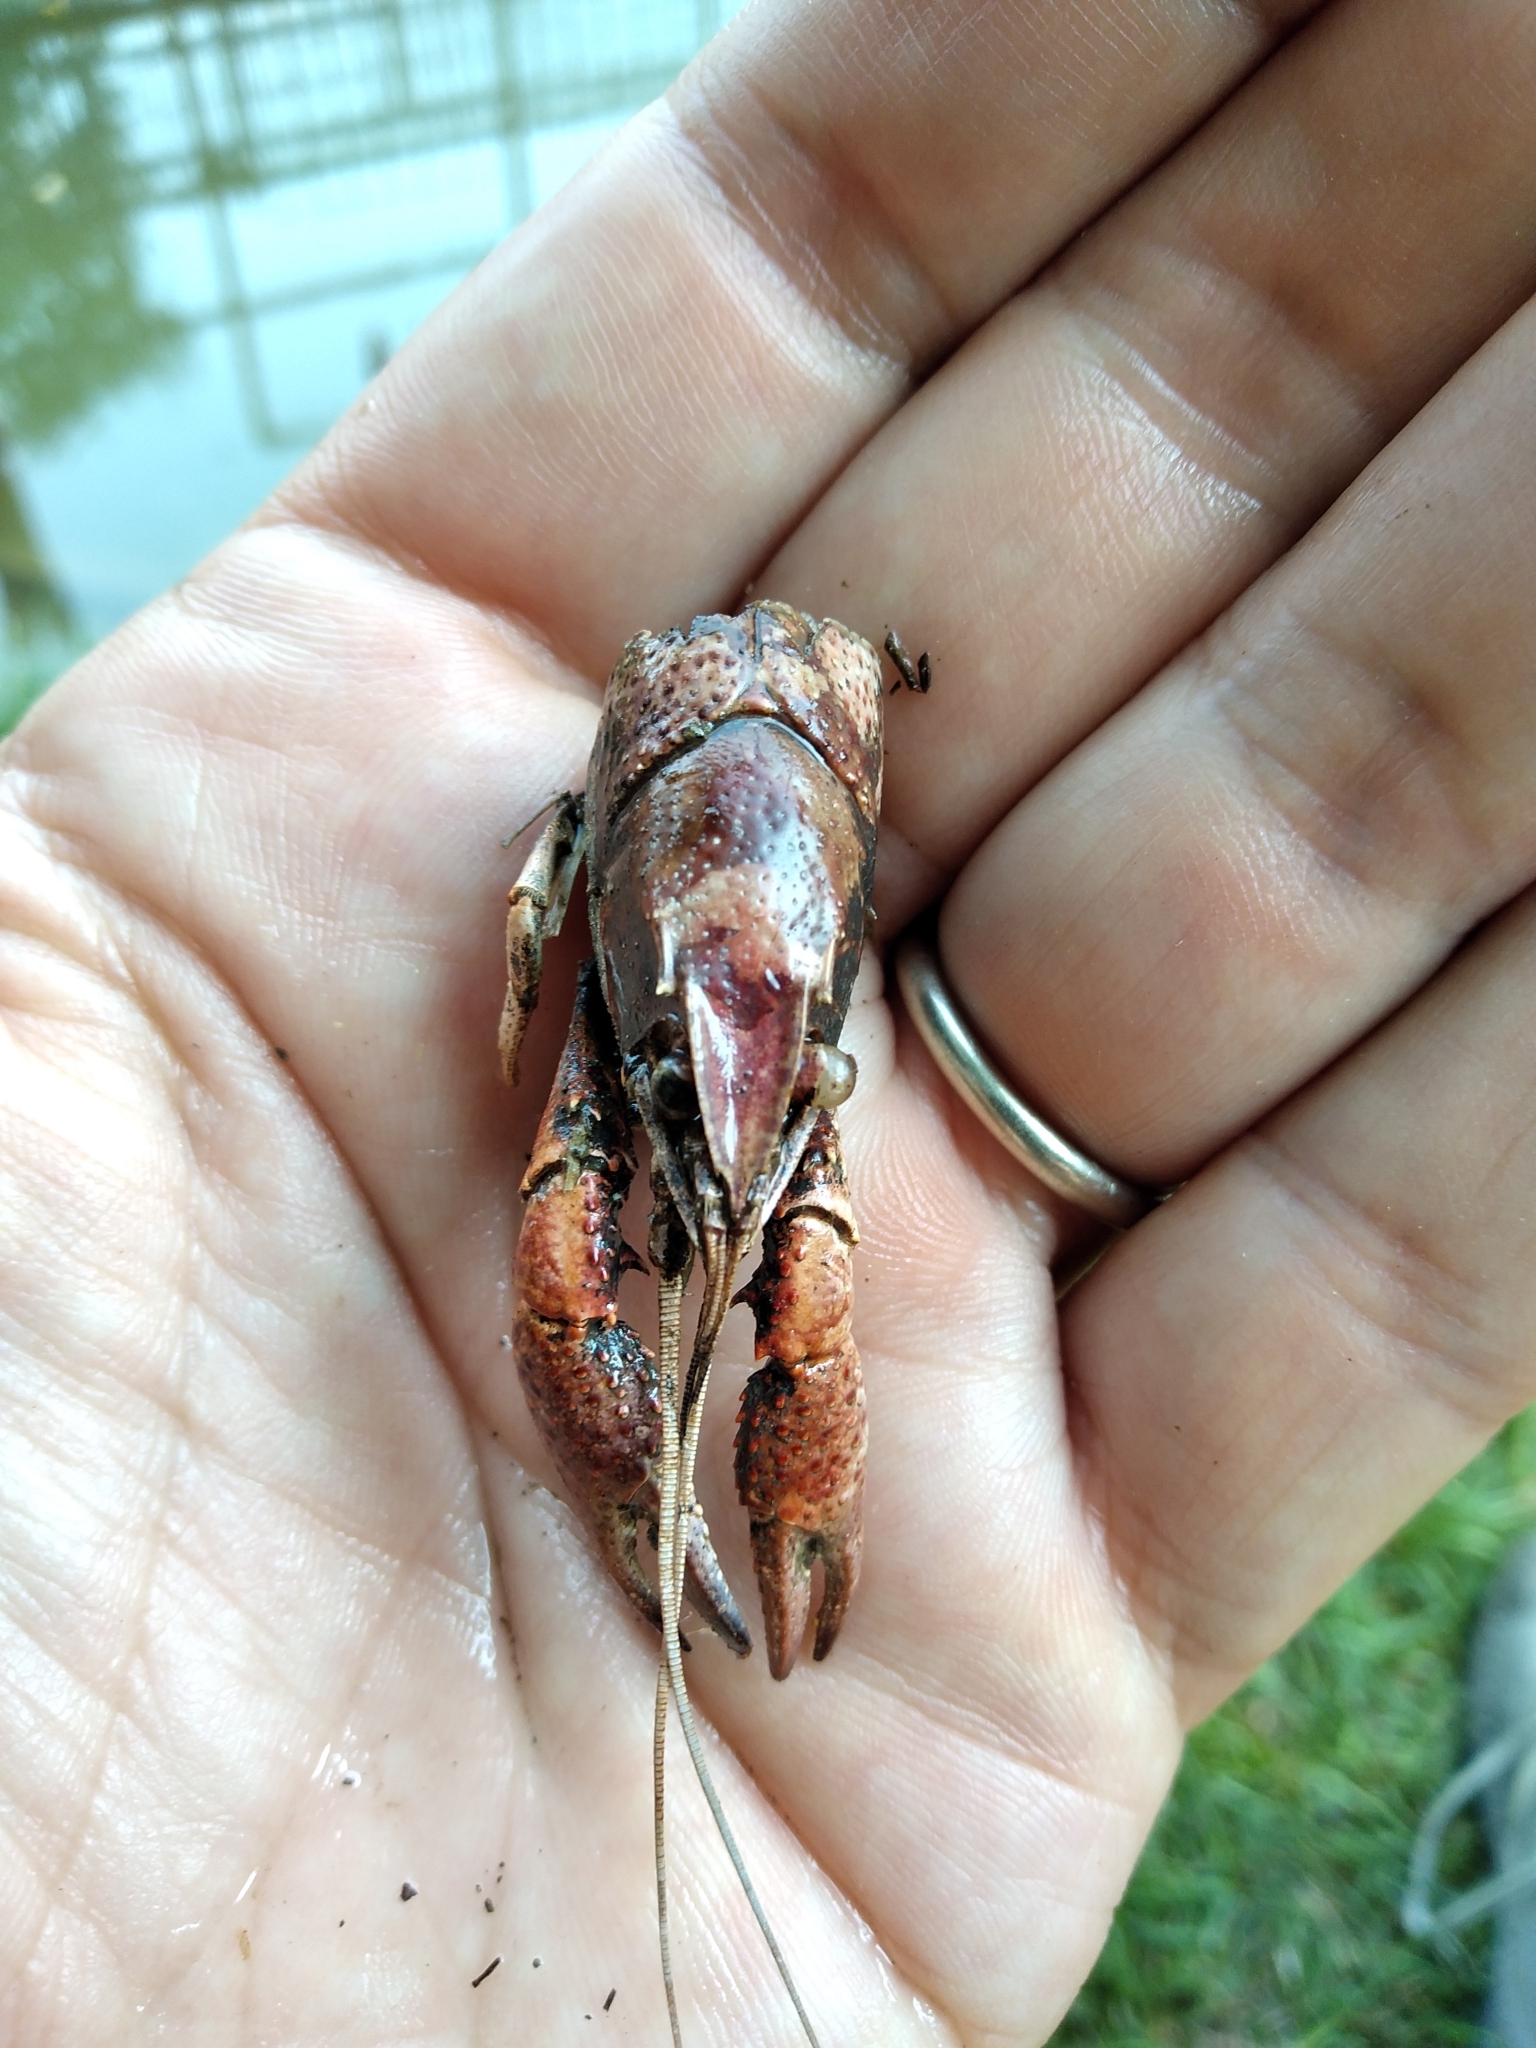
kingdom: Animalia
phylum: Arthropoda
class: Malacostraca
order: Decapoda
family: Cambaridae
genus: Procambarus
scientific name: Procambarus clarkii
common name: Red swamp crayfish
